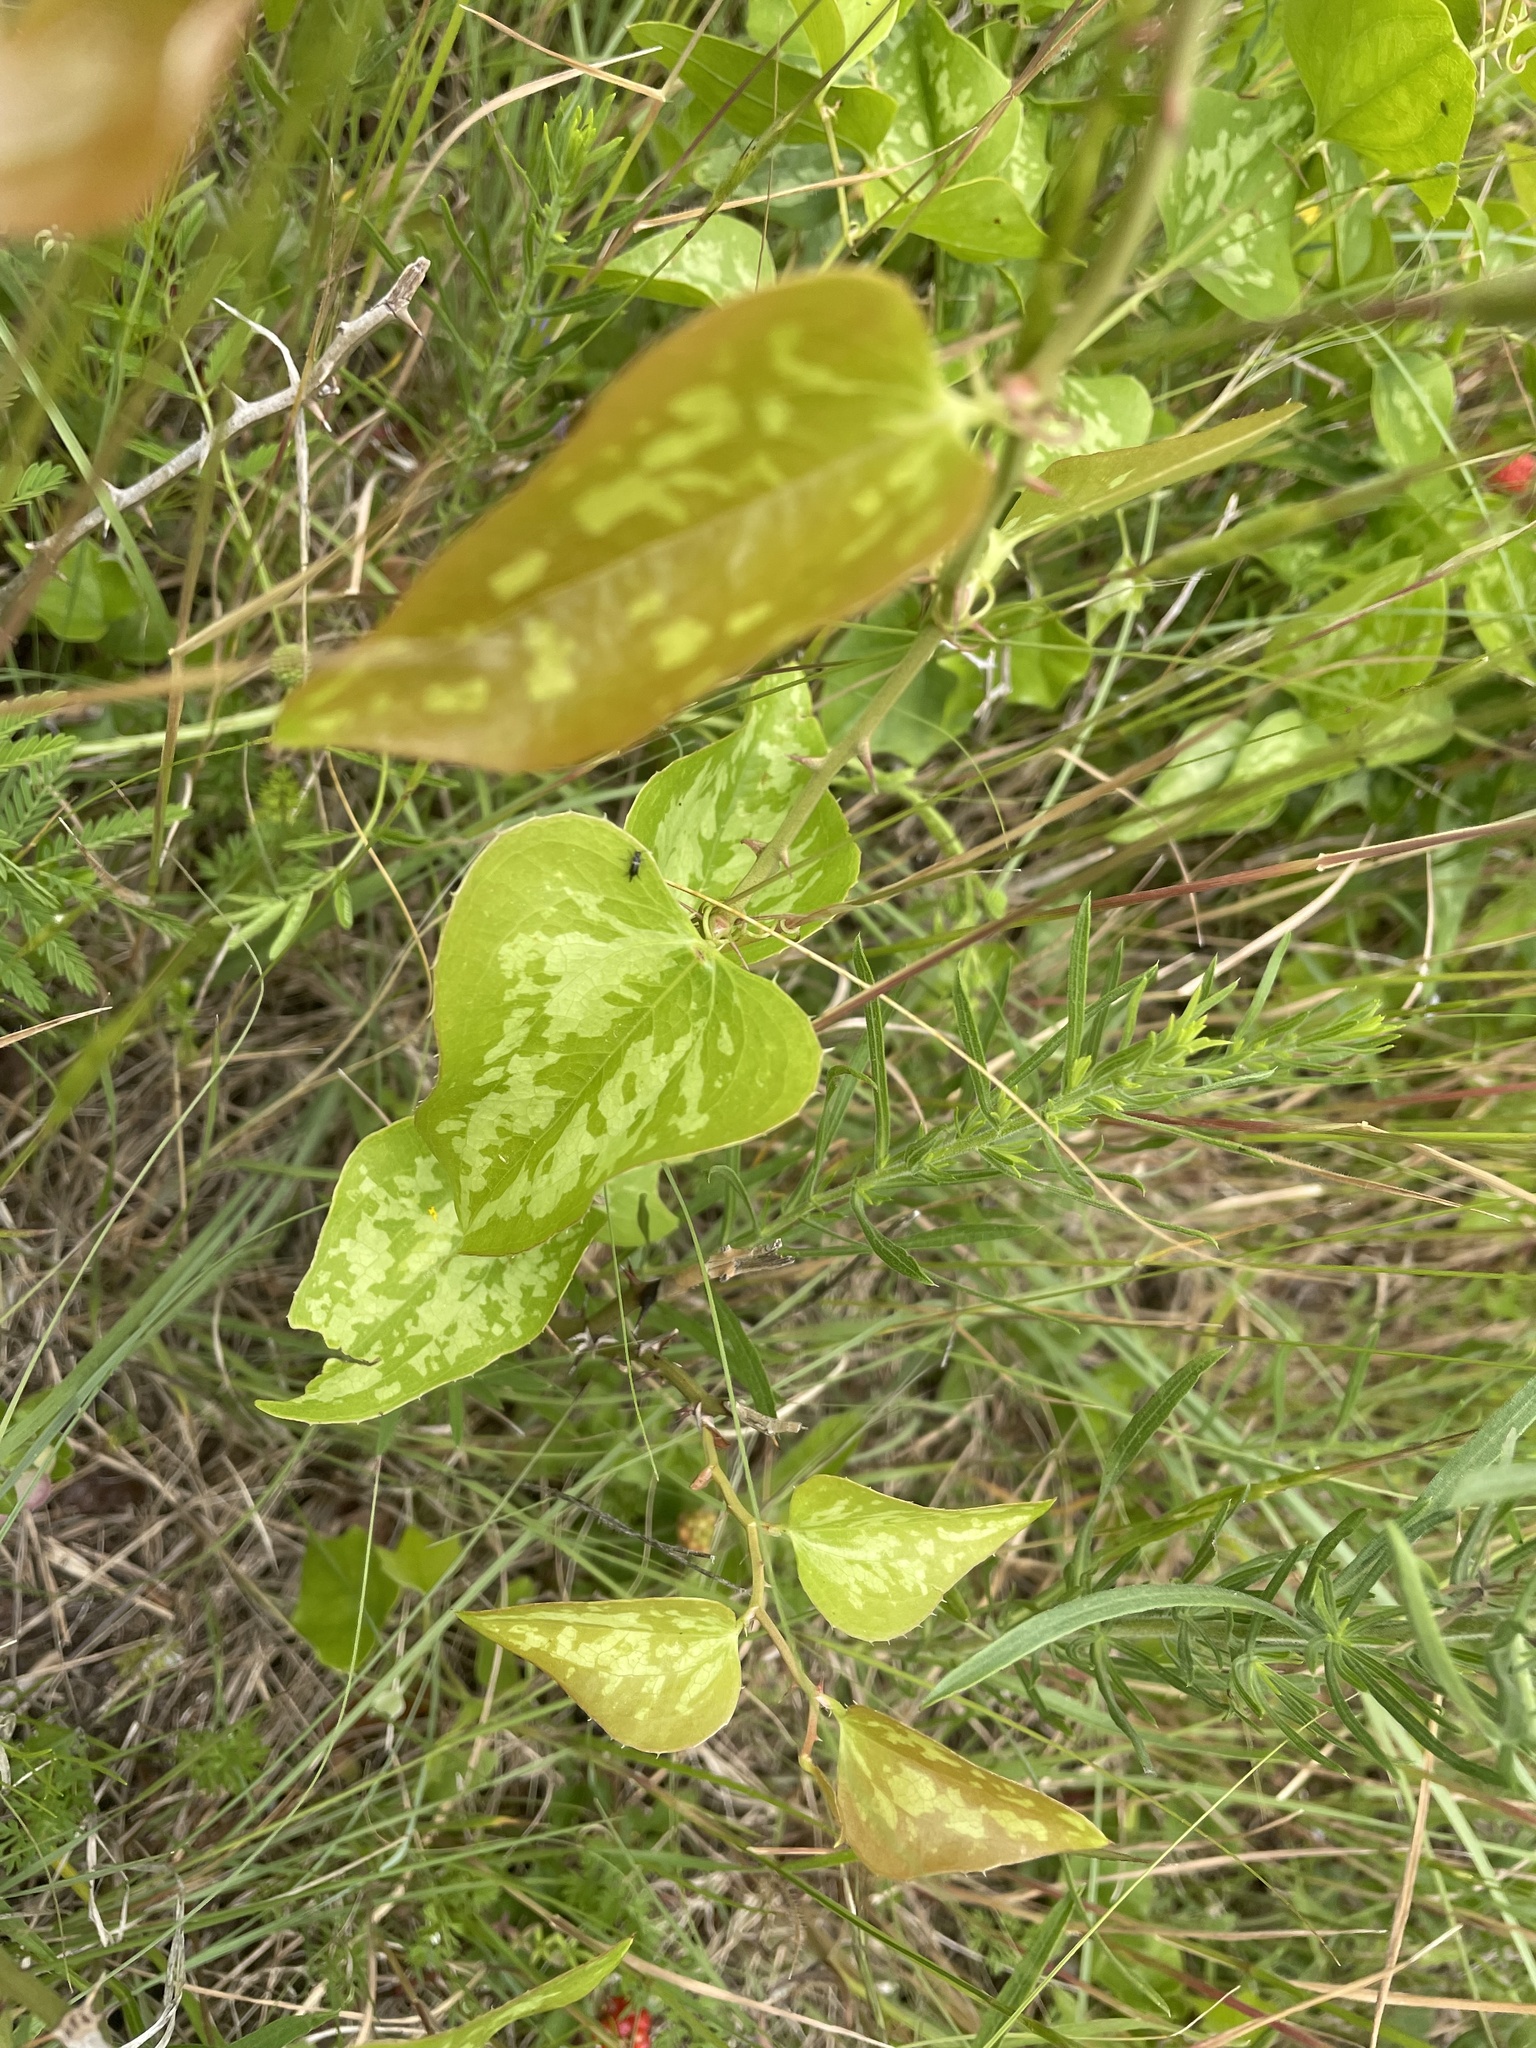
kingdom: Plantae
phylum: Tracheophyta
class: Liliopsida
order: Liliales
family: Smilacaceae
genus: Smilax
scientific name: Smilax bona-nox
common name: Catbrier
